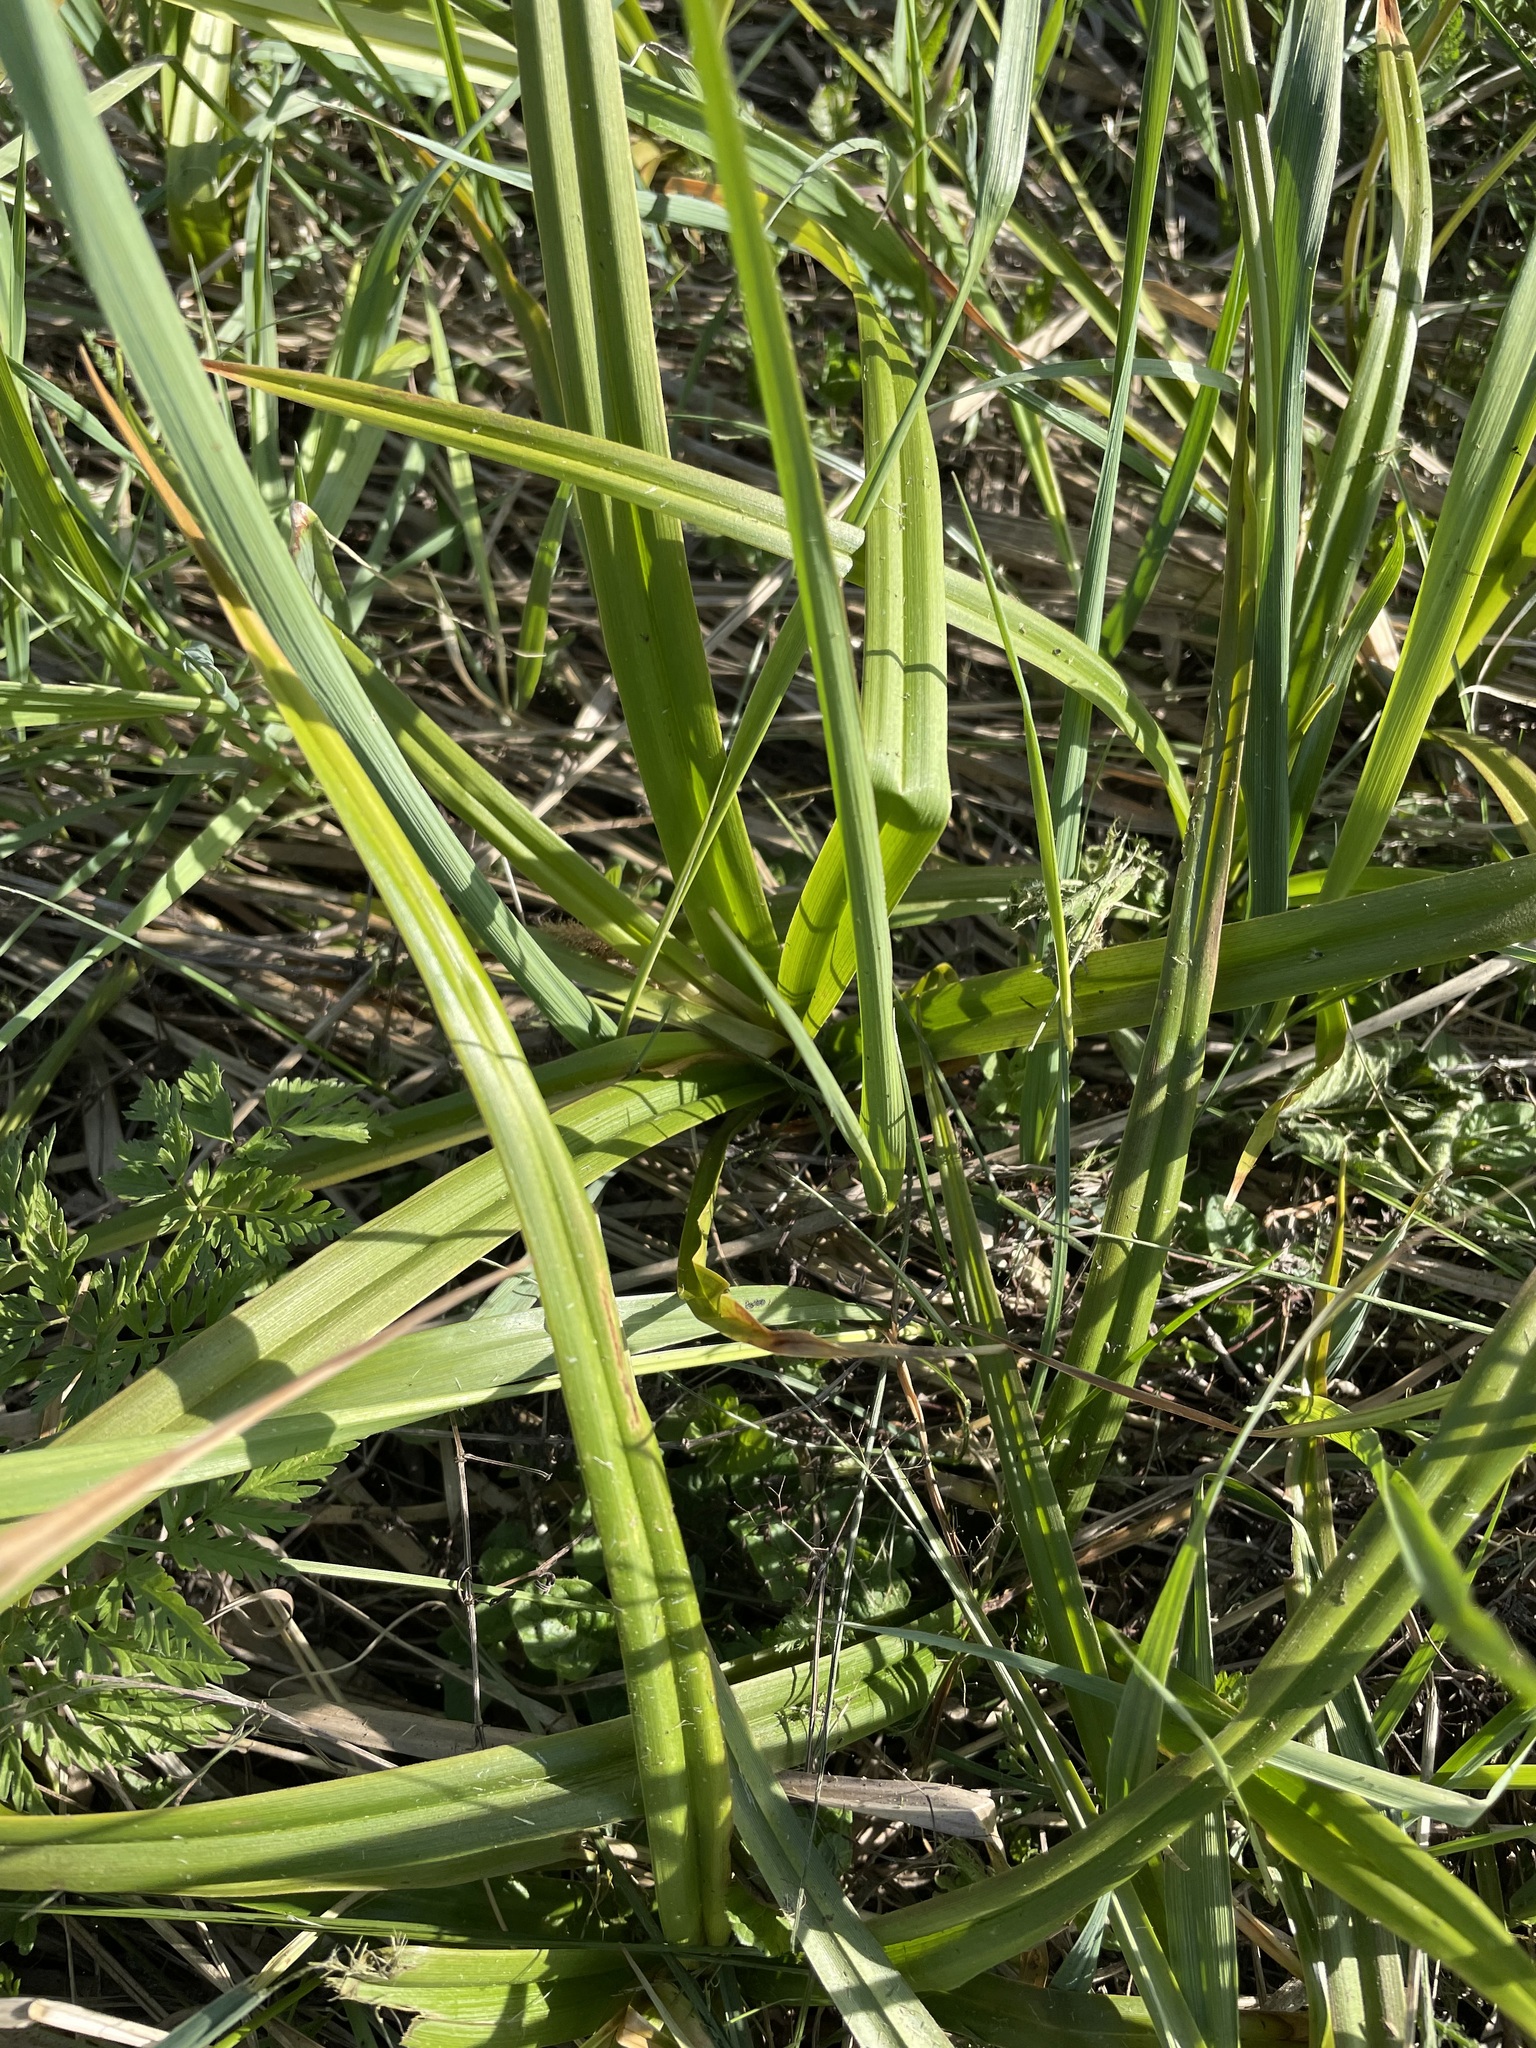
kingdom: Plantae
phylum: Tracheophyta
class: Liliopsida
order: Poales
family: Cyperaceae
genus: Scirpus
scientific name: Scirpus sylvaticus
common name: Wood club-rush
